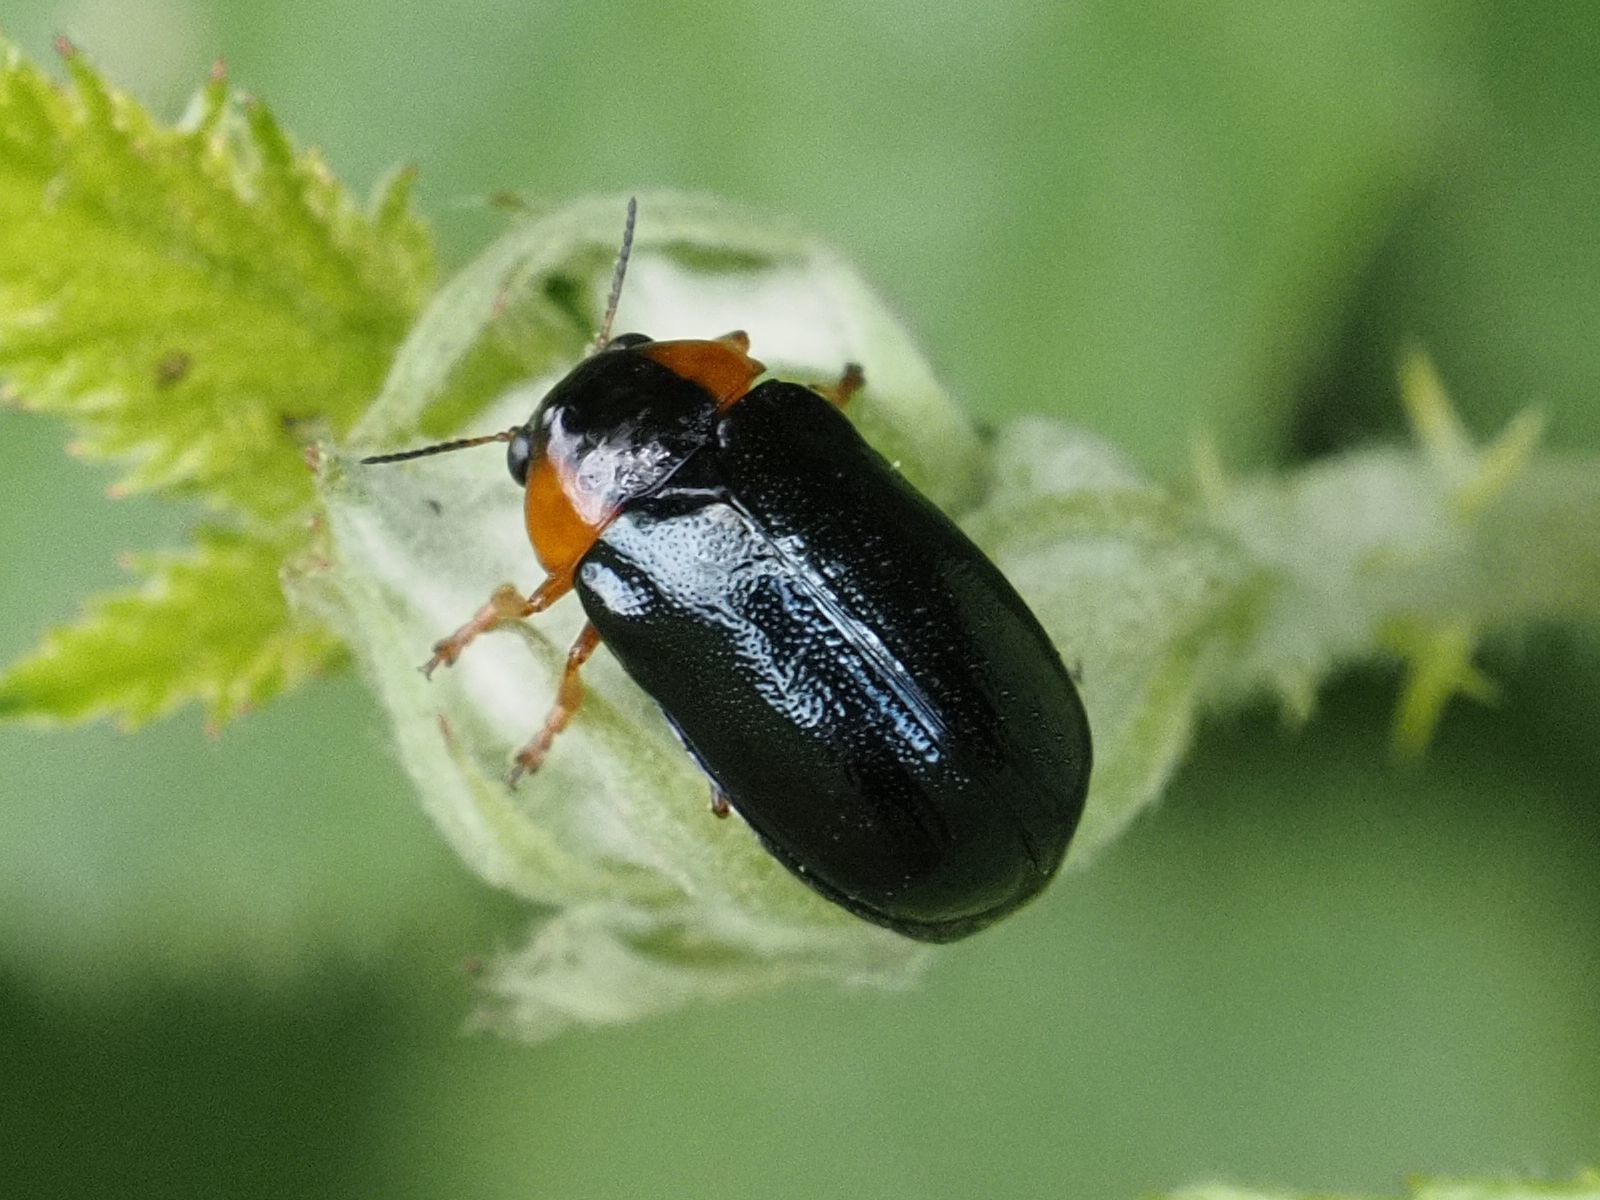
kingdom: Animalia
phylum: Arthropoda
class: Insecta
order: Coleoptera
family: Chrysomelidae
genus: Smaragdina
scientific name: Smaragdina aurita
